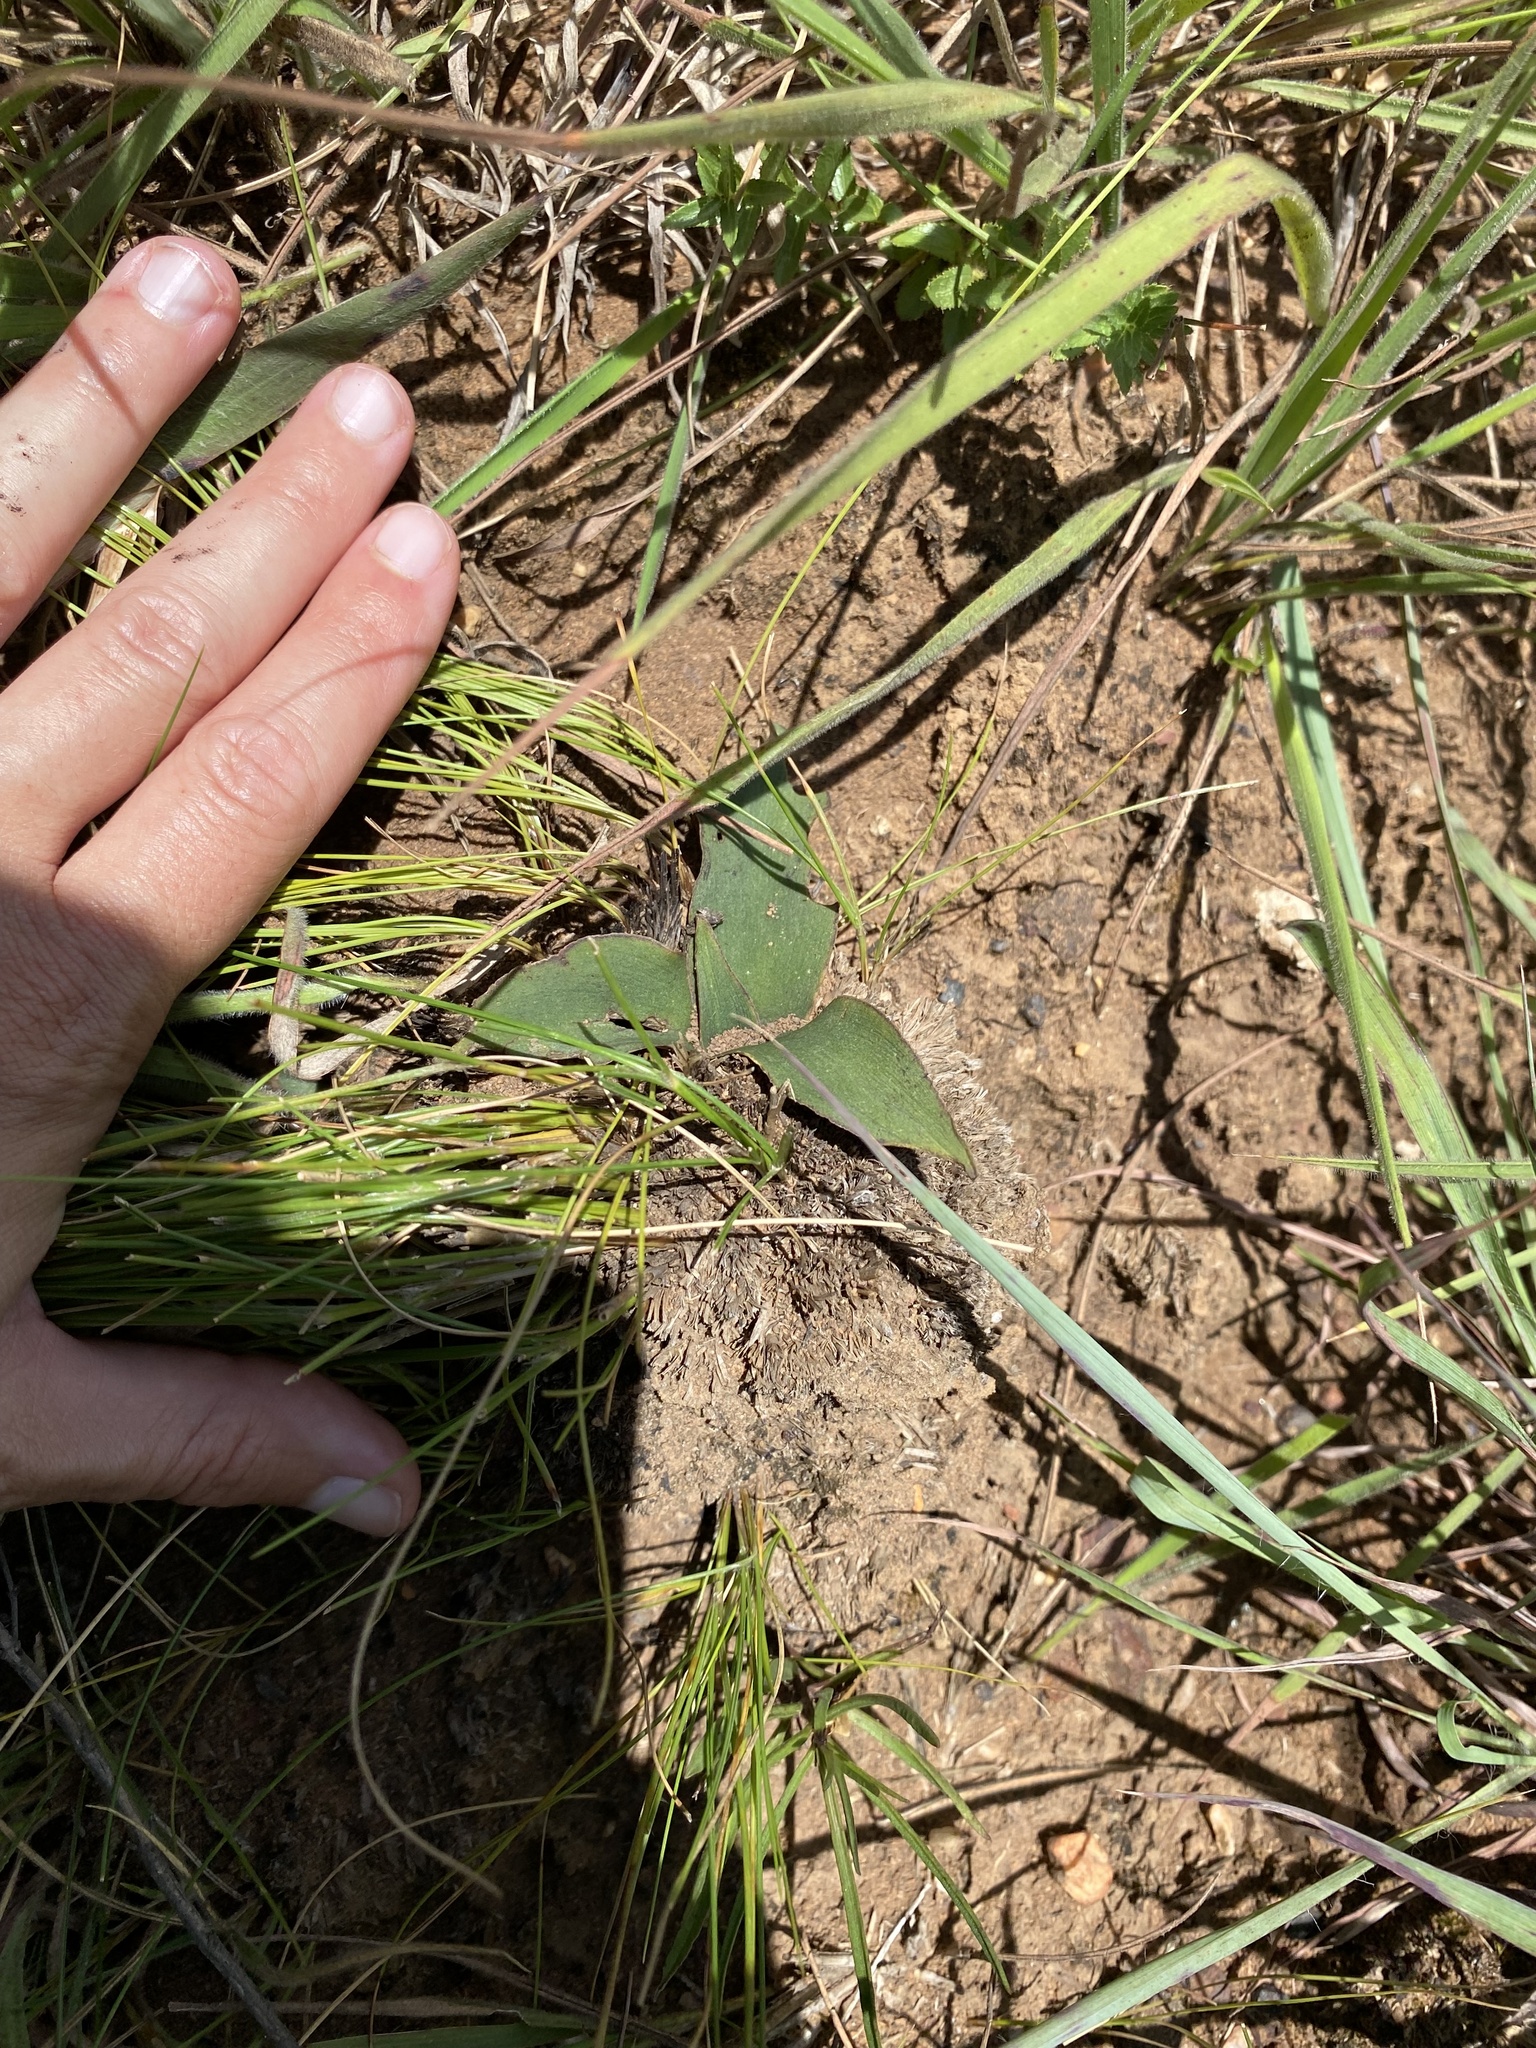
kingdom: Plantae
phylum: Tracheophyta
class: Liliopsida
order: Asparagales
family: Asparagaceae
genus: Ledebouria
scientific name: Ledebouria ovatifolia
